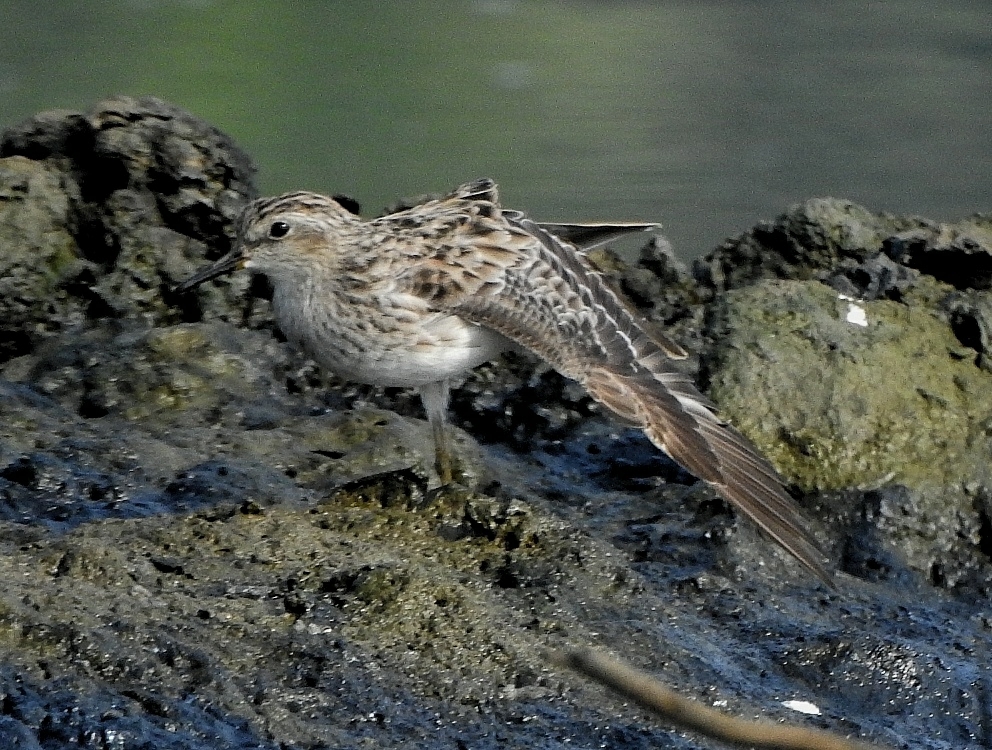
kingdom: Animalia
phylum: Chordata
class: Aves
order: Charadriiformes
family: Scolopacidae
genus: Calidris
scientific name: Calidris subminuta
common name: Long-toed stint
